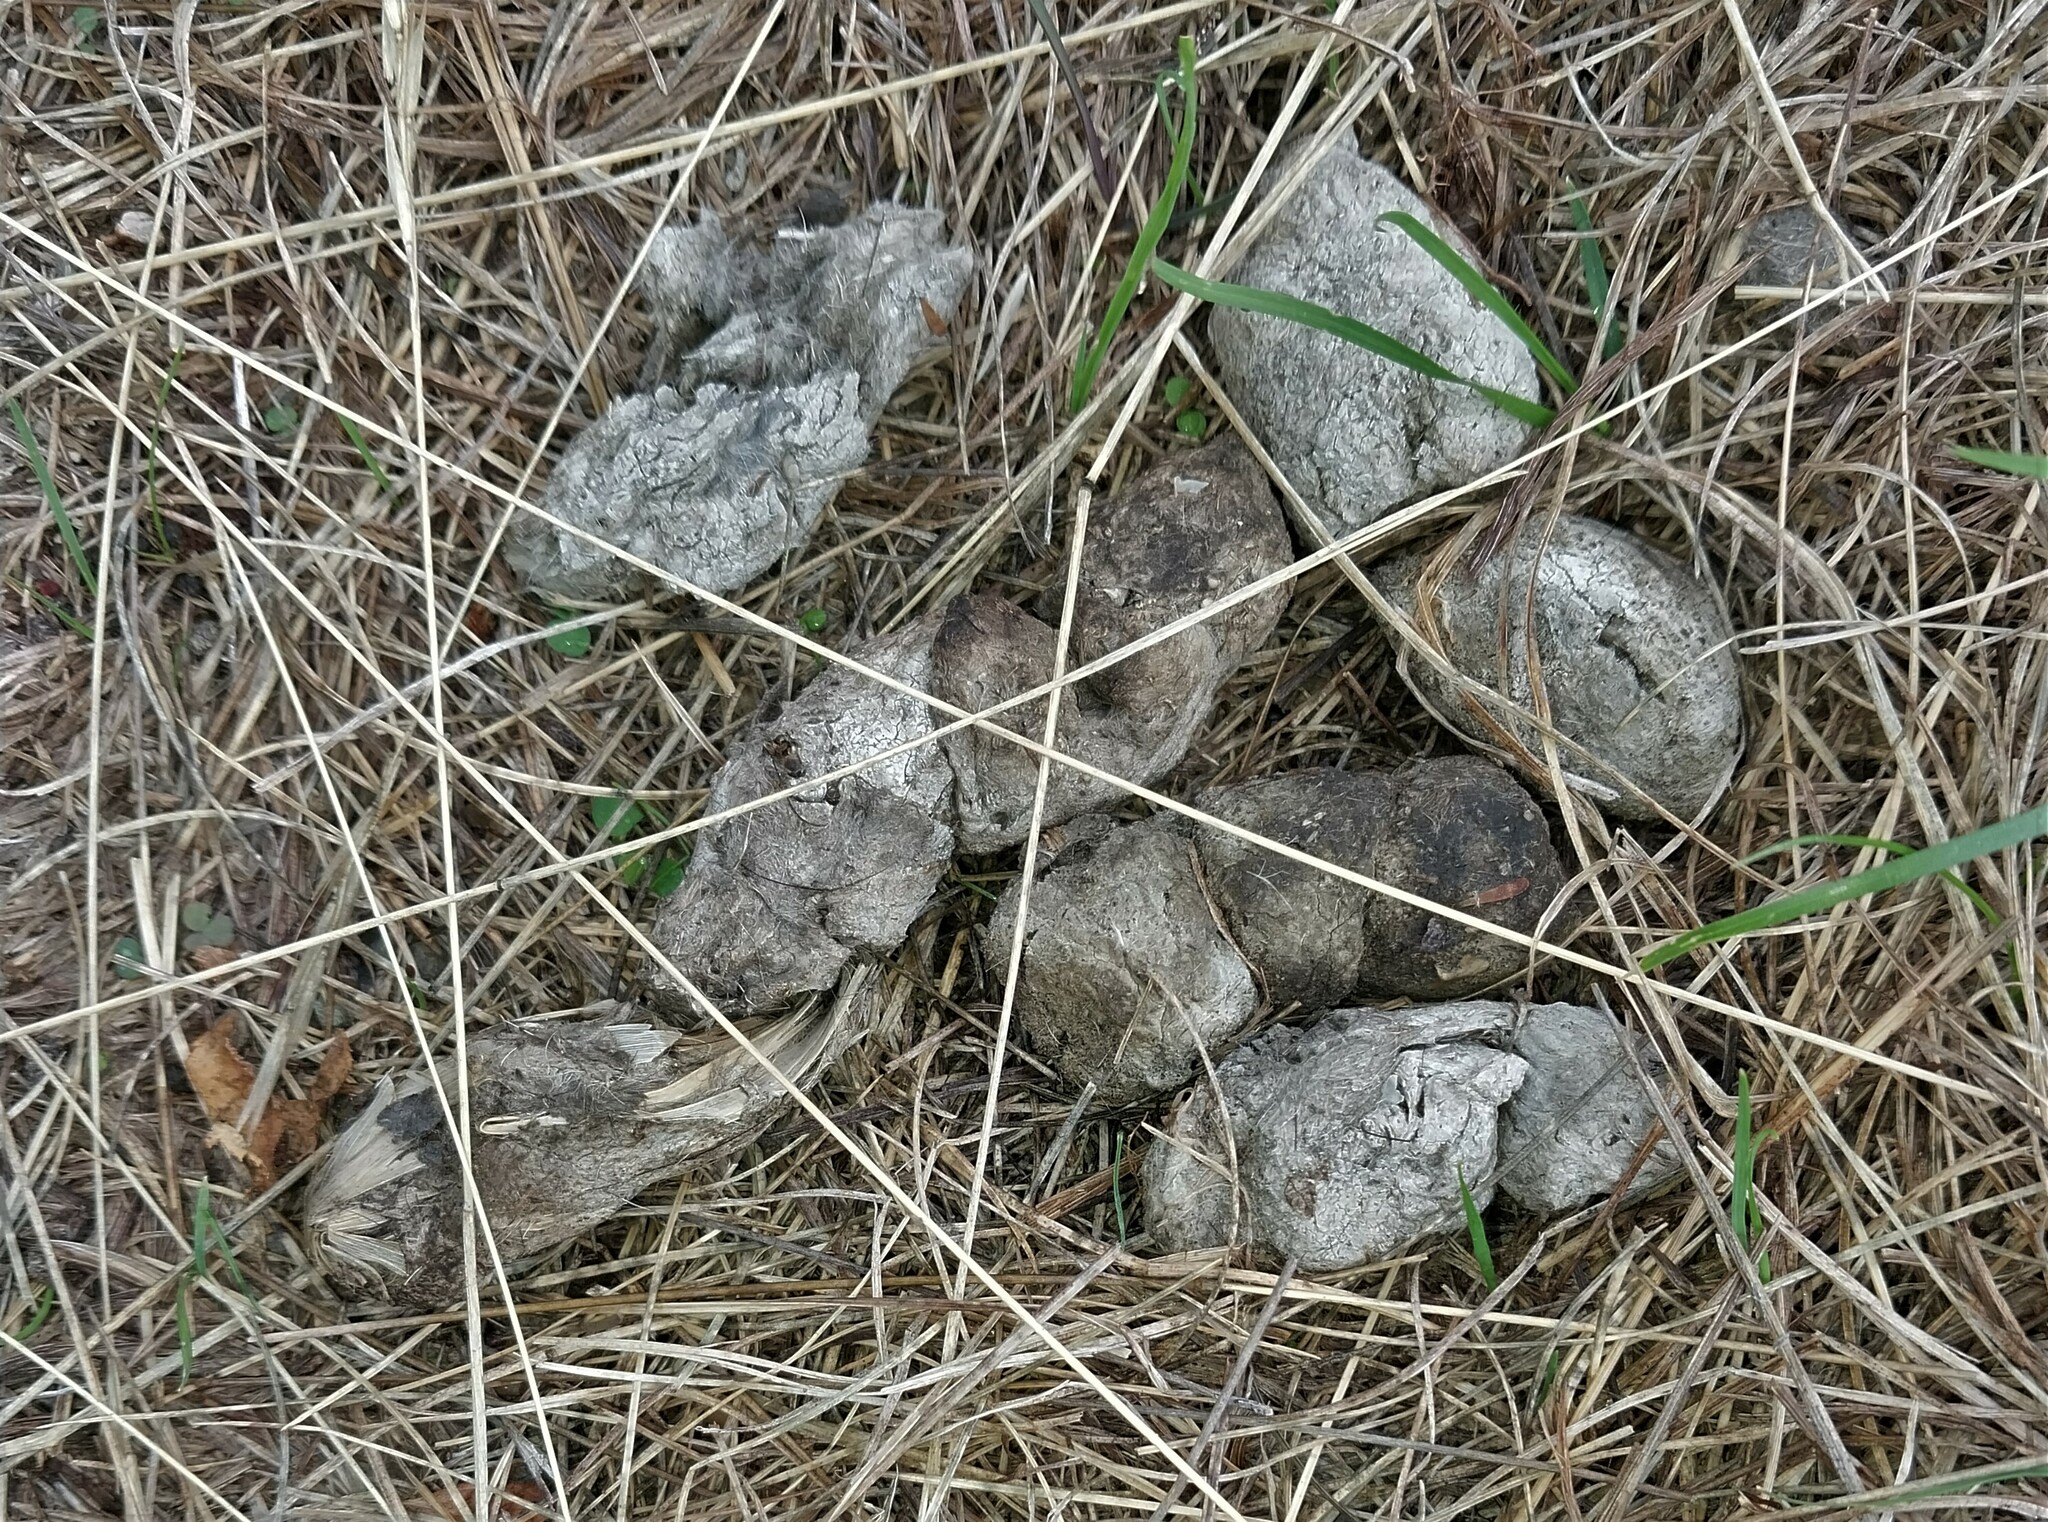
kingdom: Animalia
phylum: Chordata
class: Mammalia
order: Carnivora
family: Canidae
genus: Canis
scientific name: Canis lupus
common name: Gray wolf
